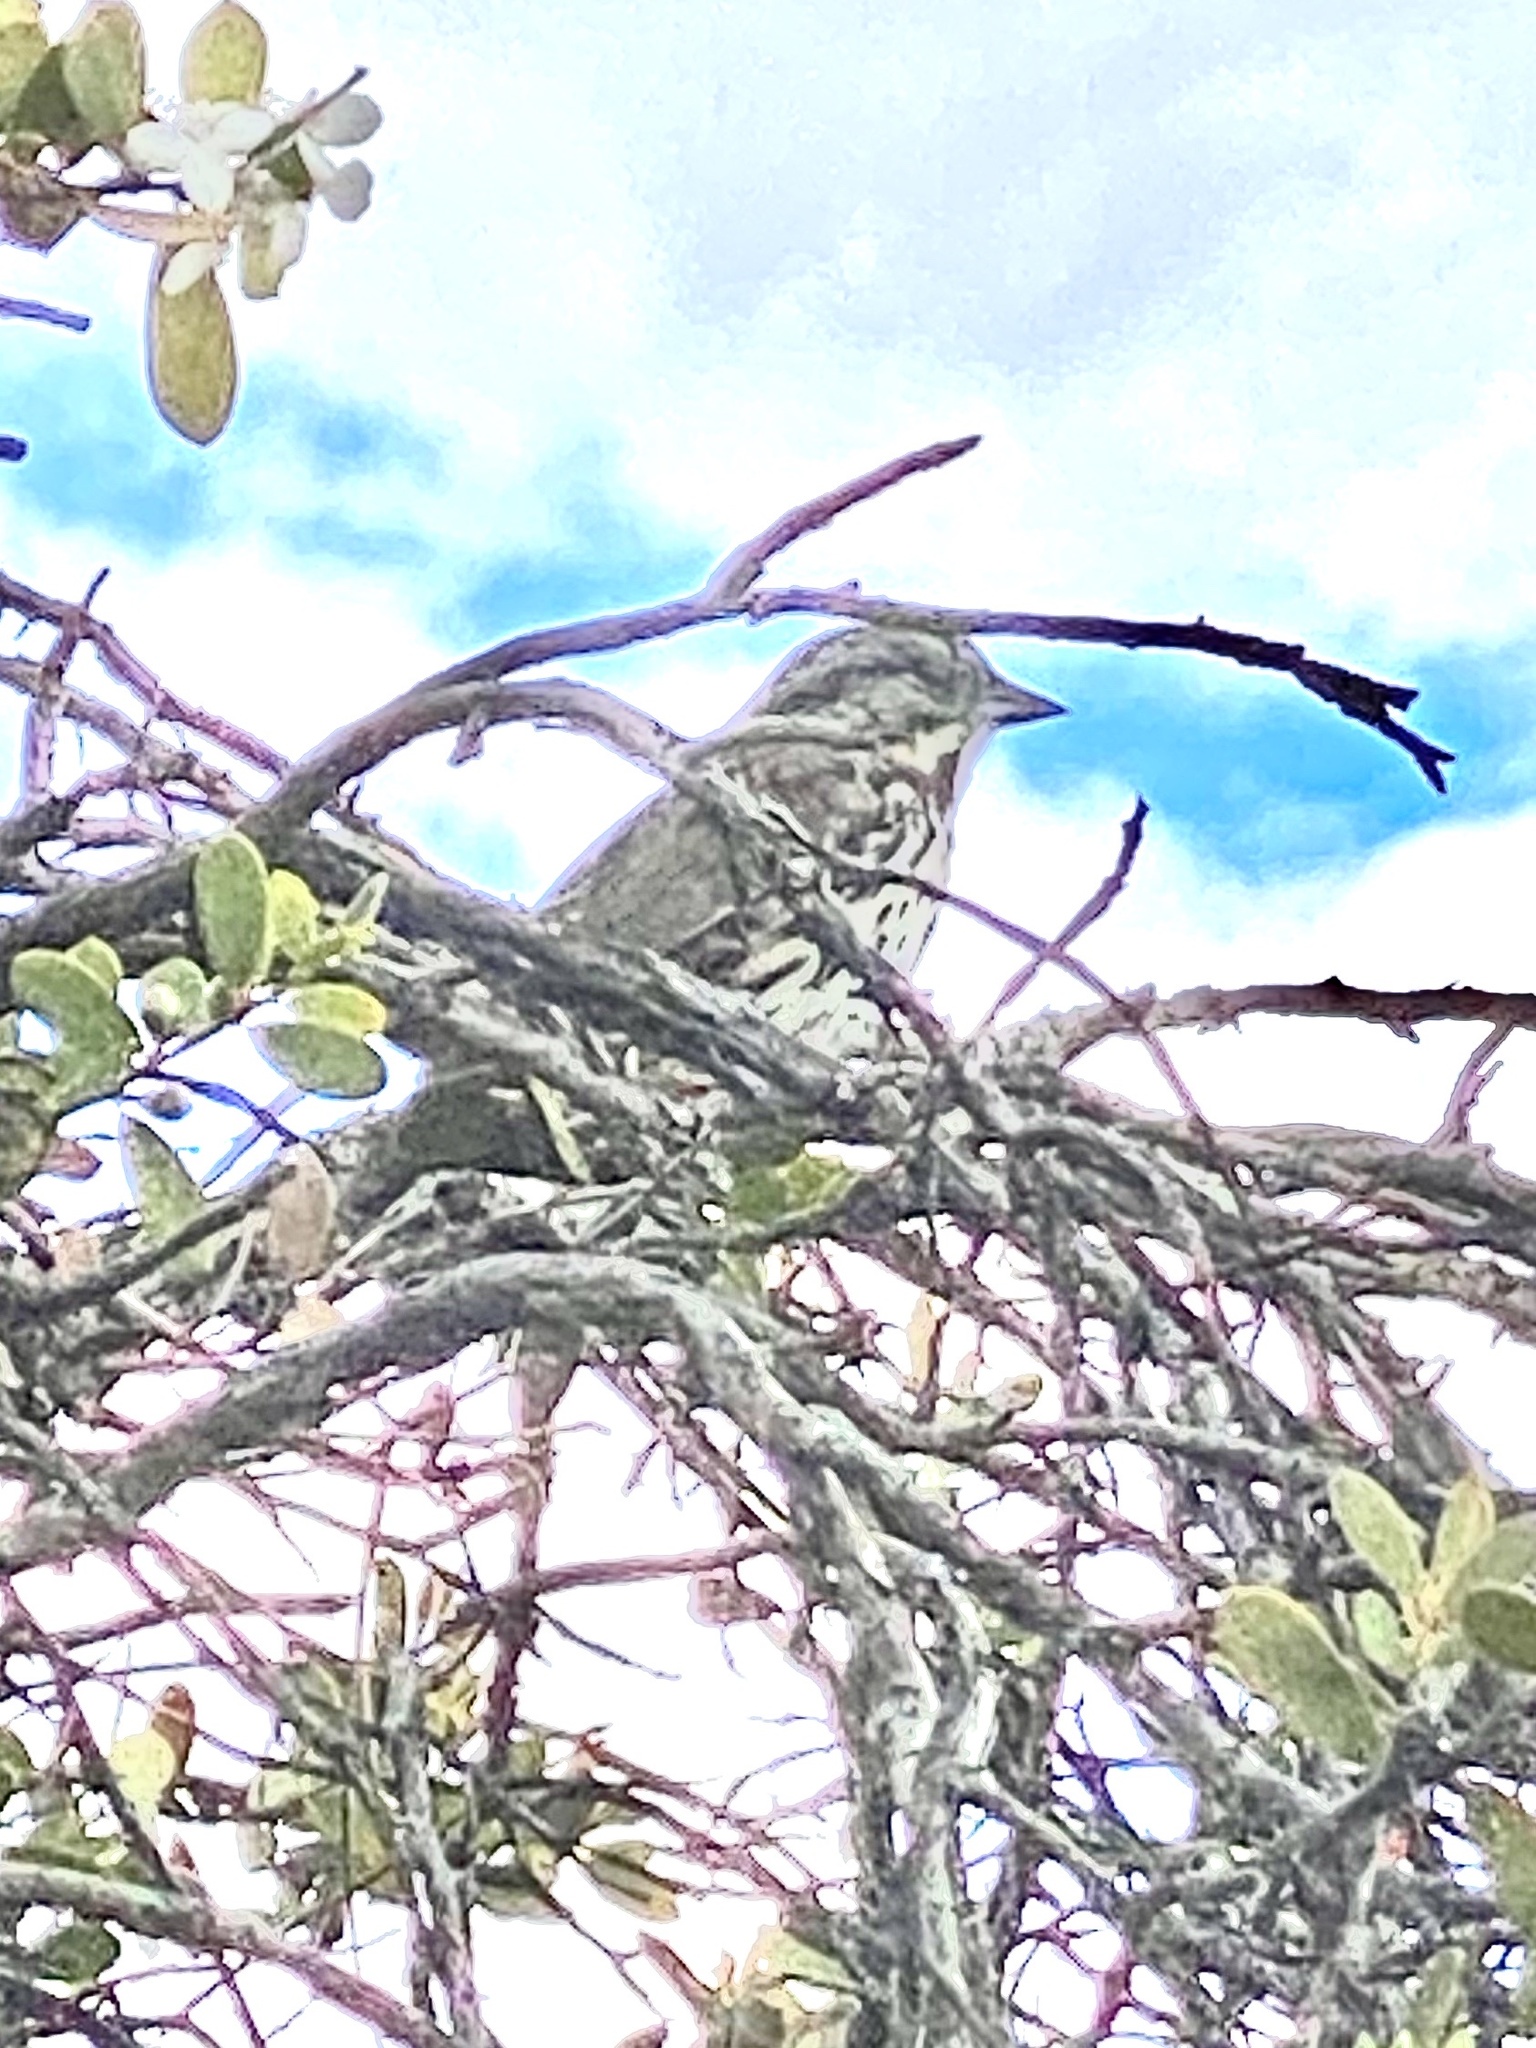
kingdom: Animalia
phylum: Chordata
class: Aves
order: Passeriformes
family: Passerellidae
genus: Melospiza
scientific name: Melospiza melodia
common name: Song sparrow
